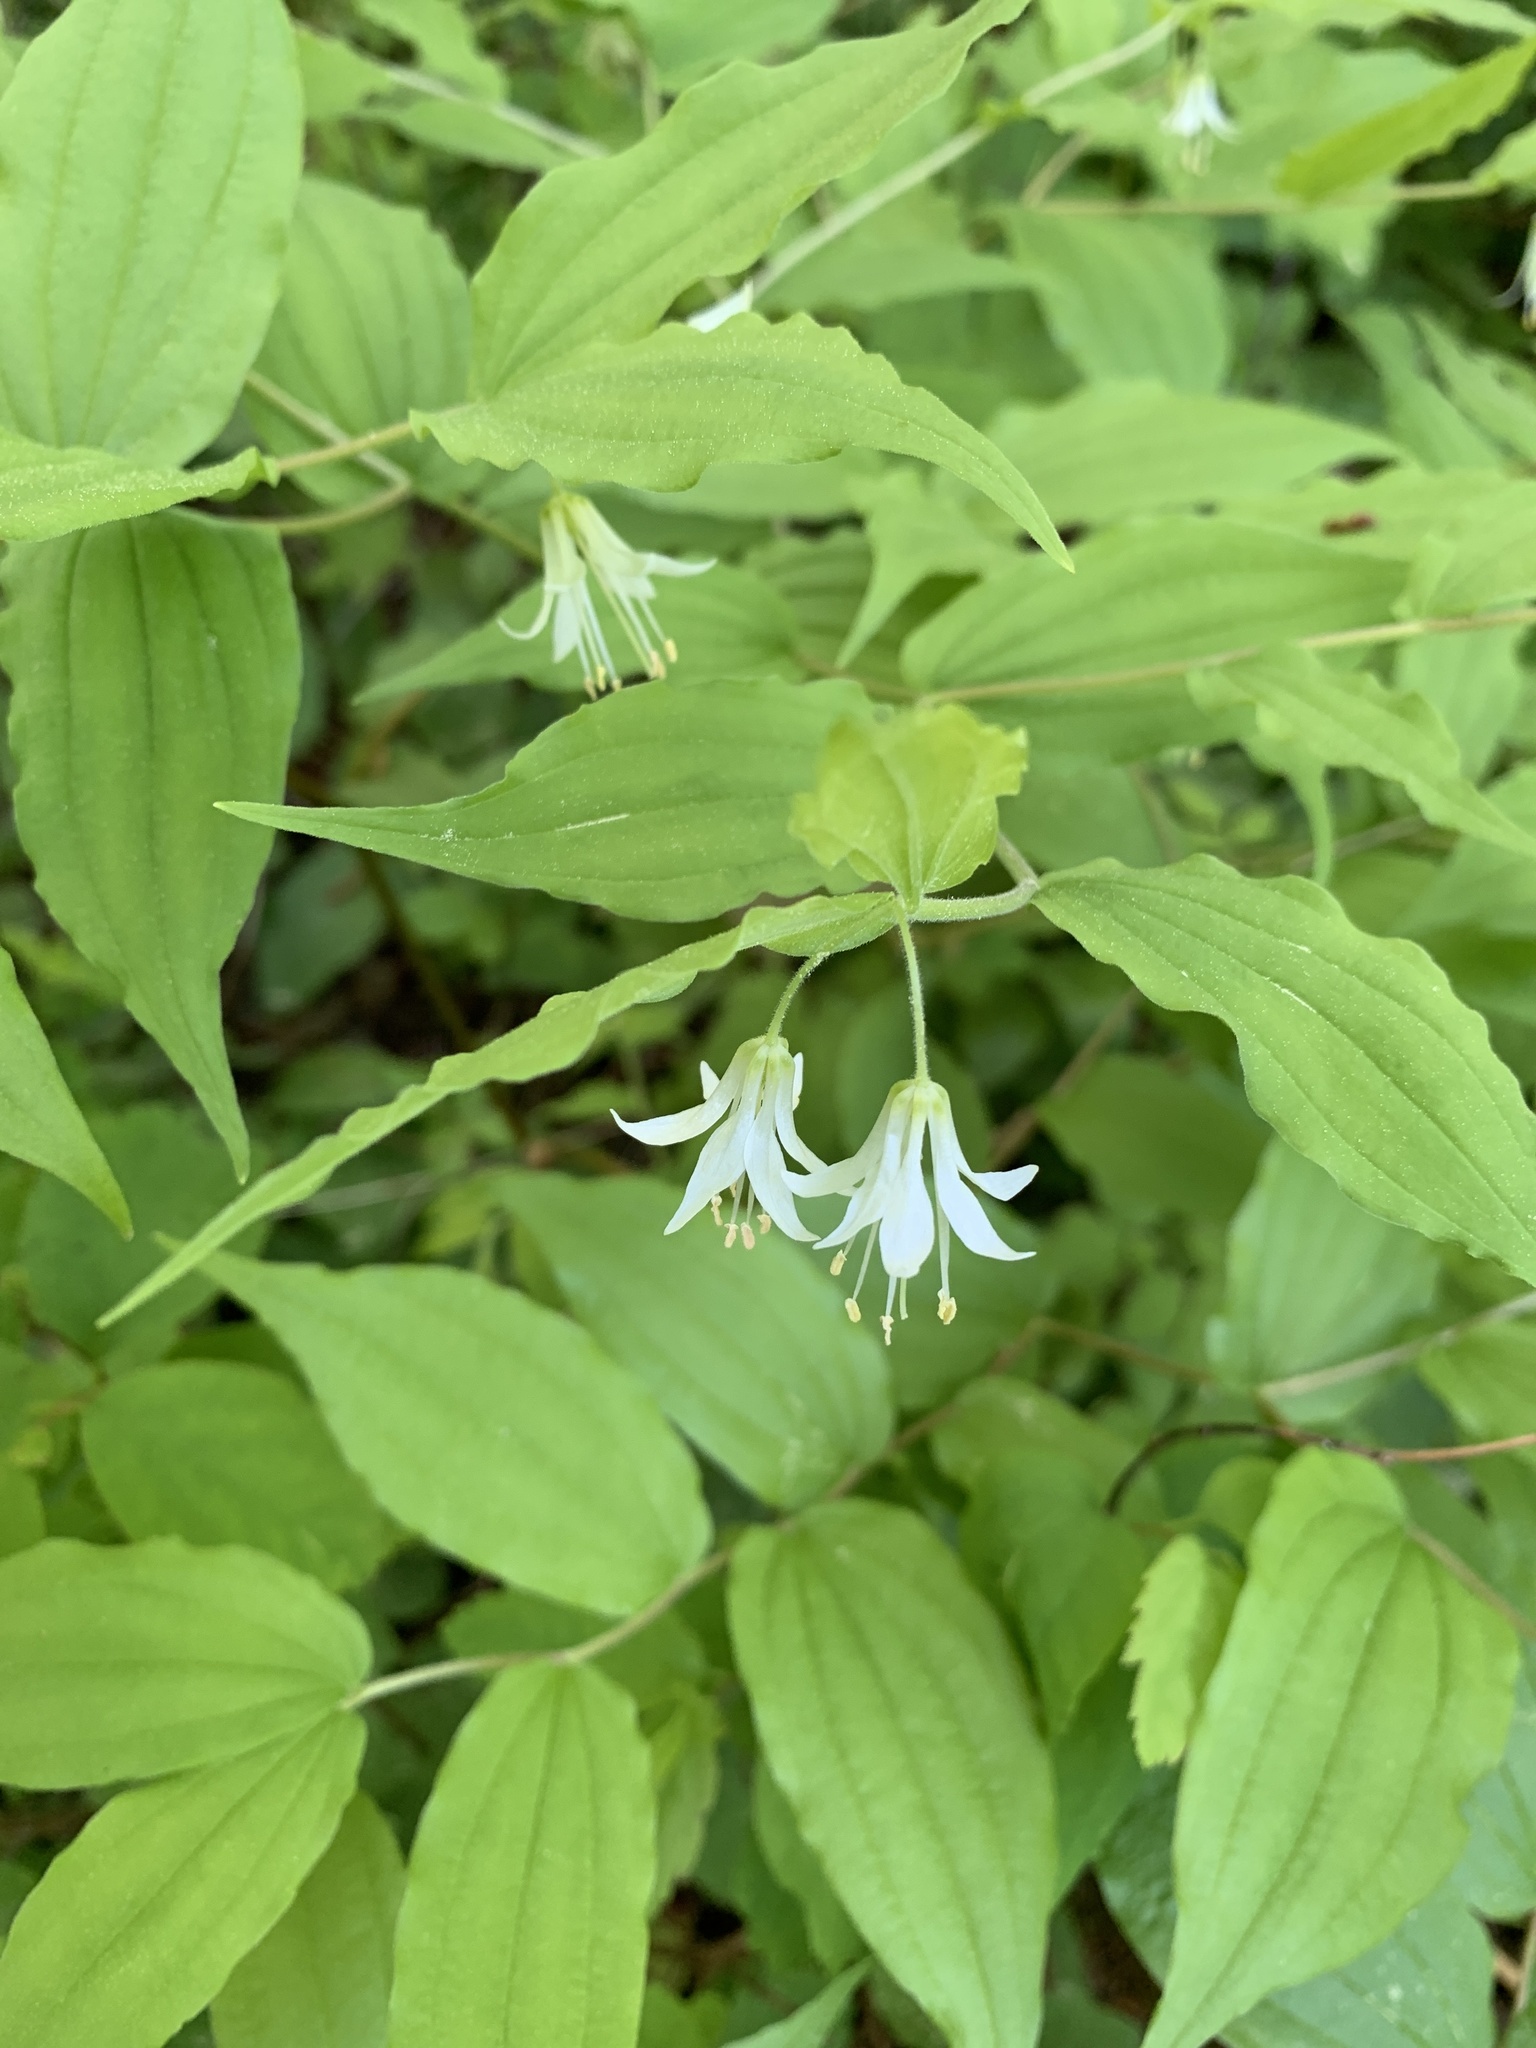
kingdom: Plantae
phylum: Tracheophyta
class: Liliopsida
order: Liliales
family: Liliaceae
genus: Prosartes
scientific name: Prosartes hookeri
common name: Fairy-bells
